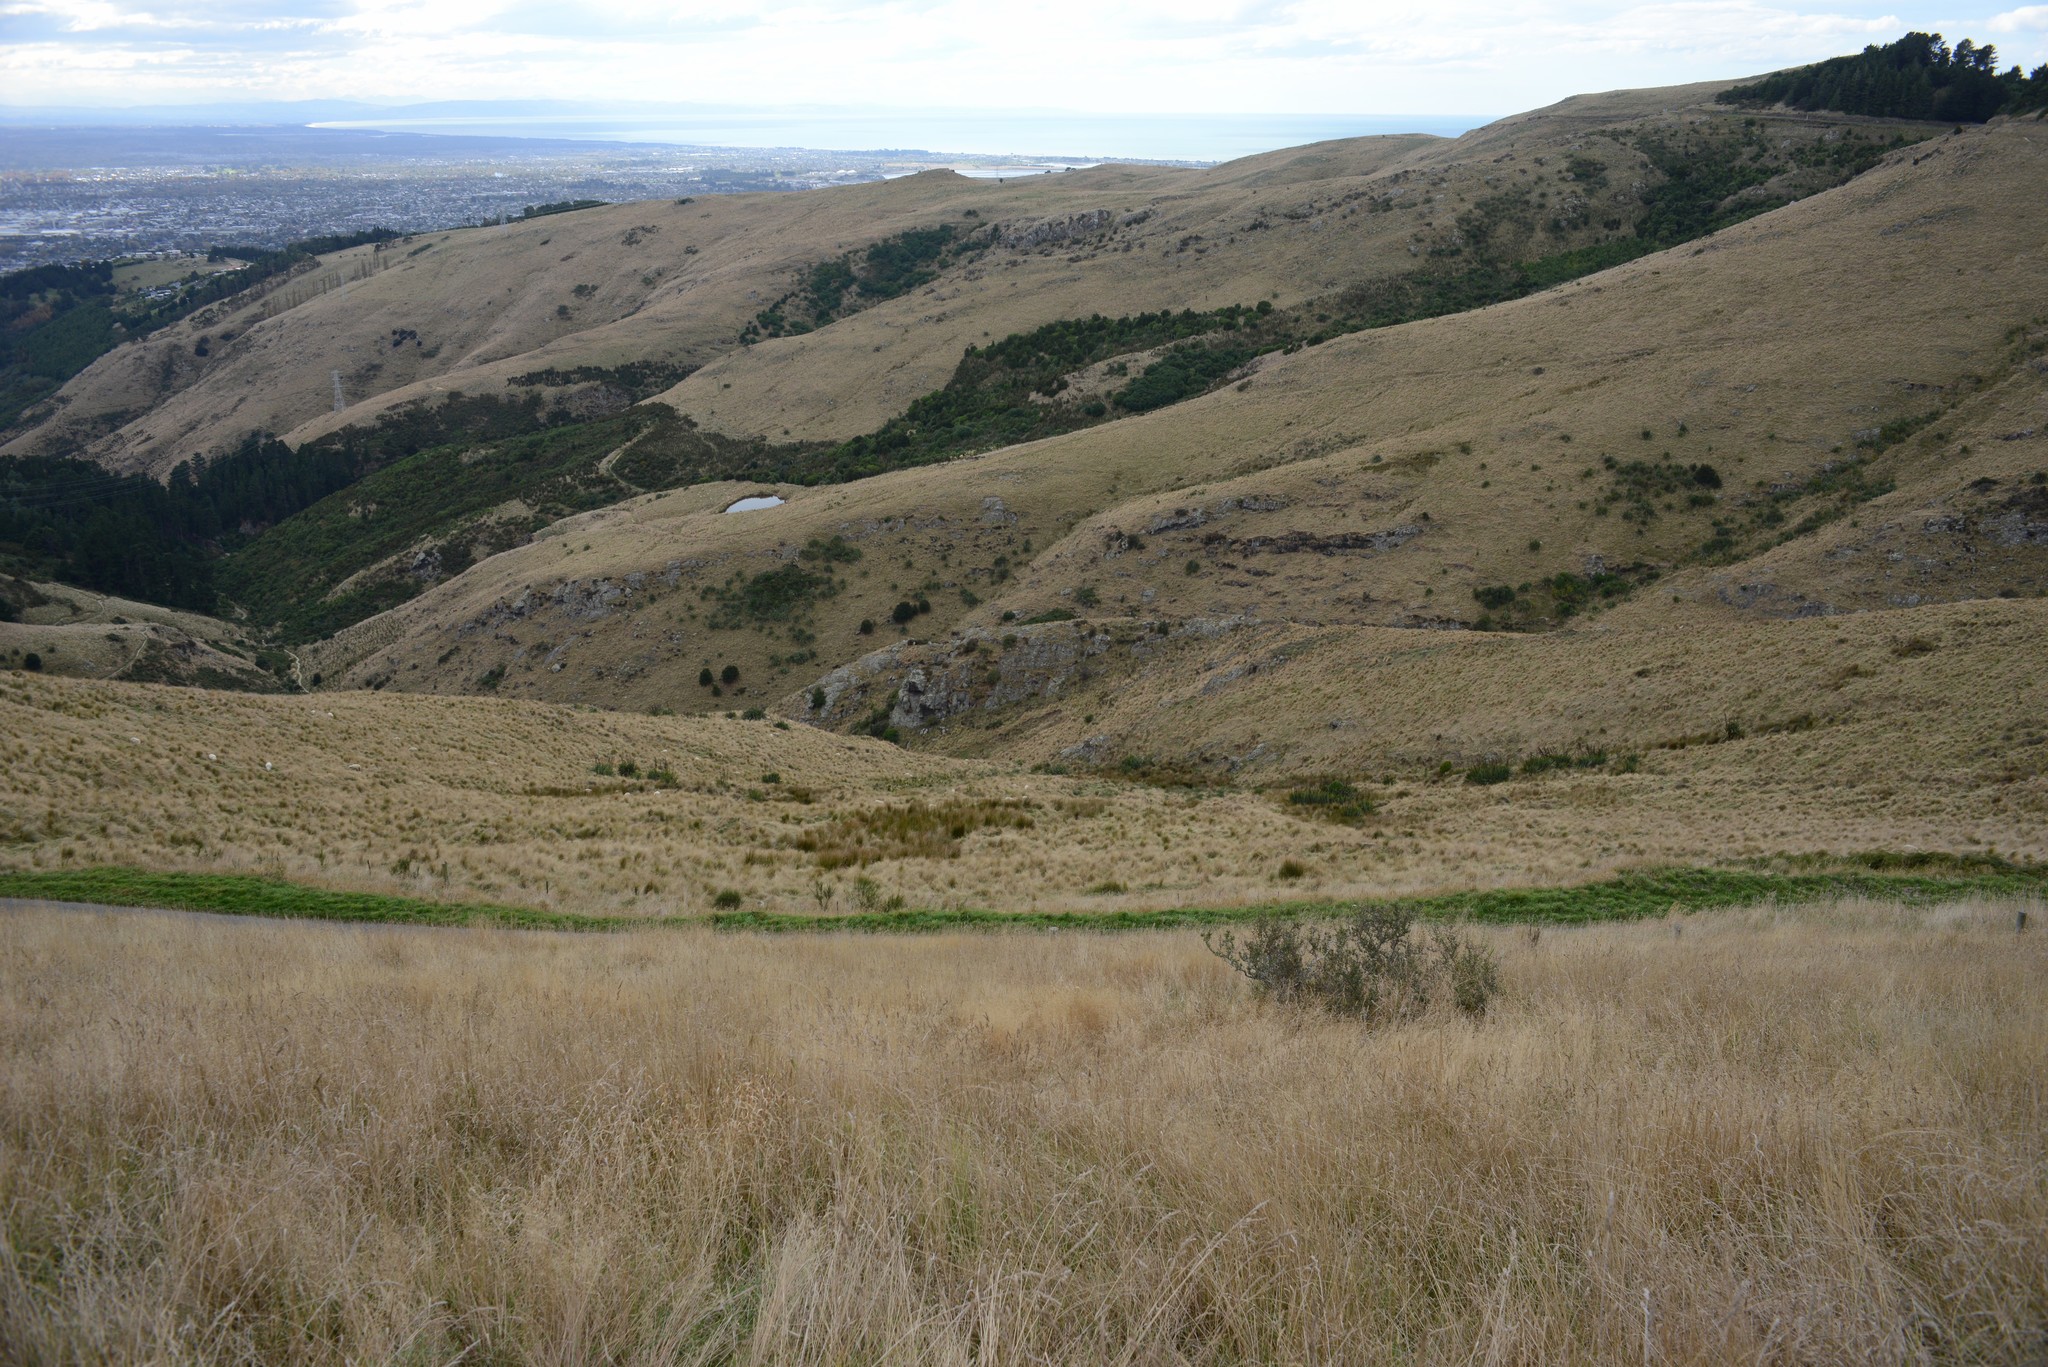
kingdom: Plantae
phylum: Tracheophyta
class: Magnoliopsida
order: Rosales
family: Rhamnaceae
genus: Discaria
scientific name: Discaria toumatou
